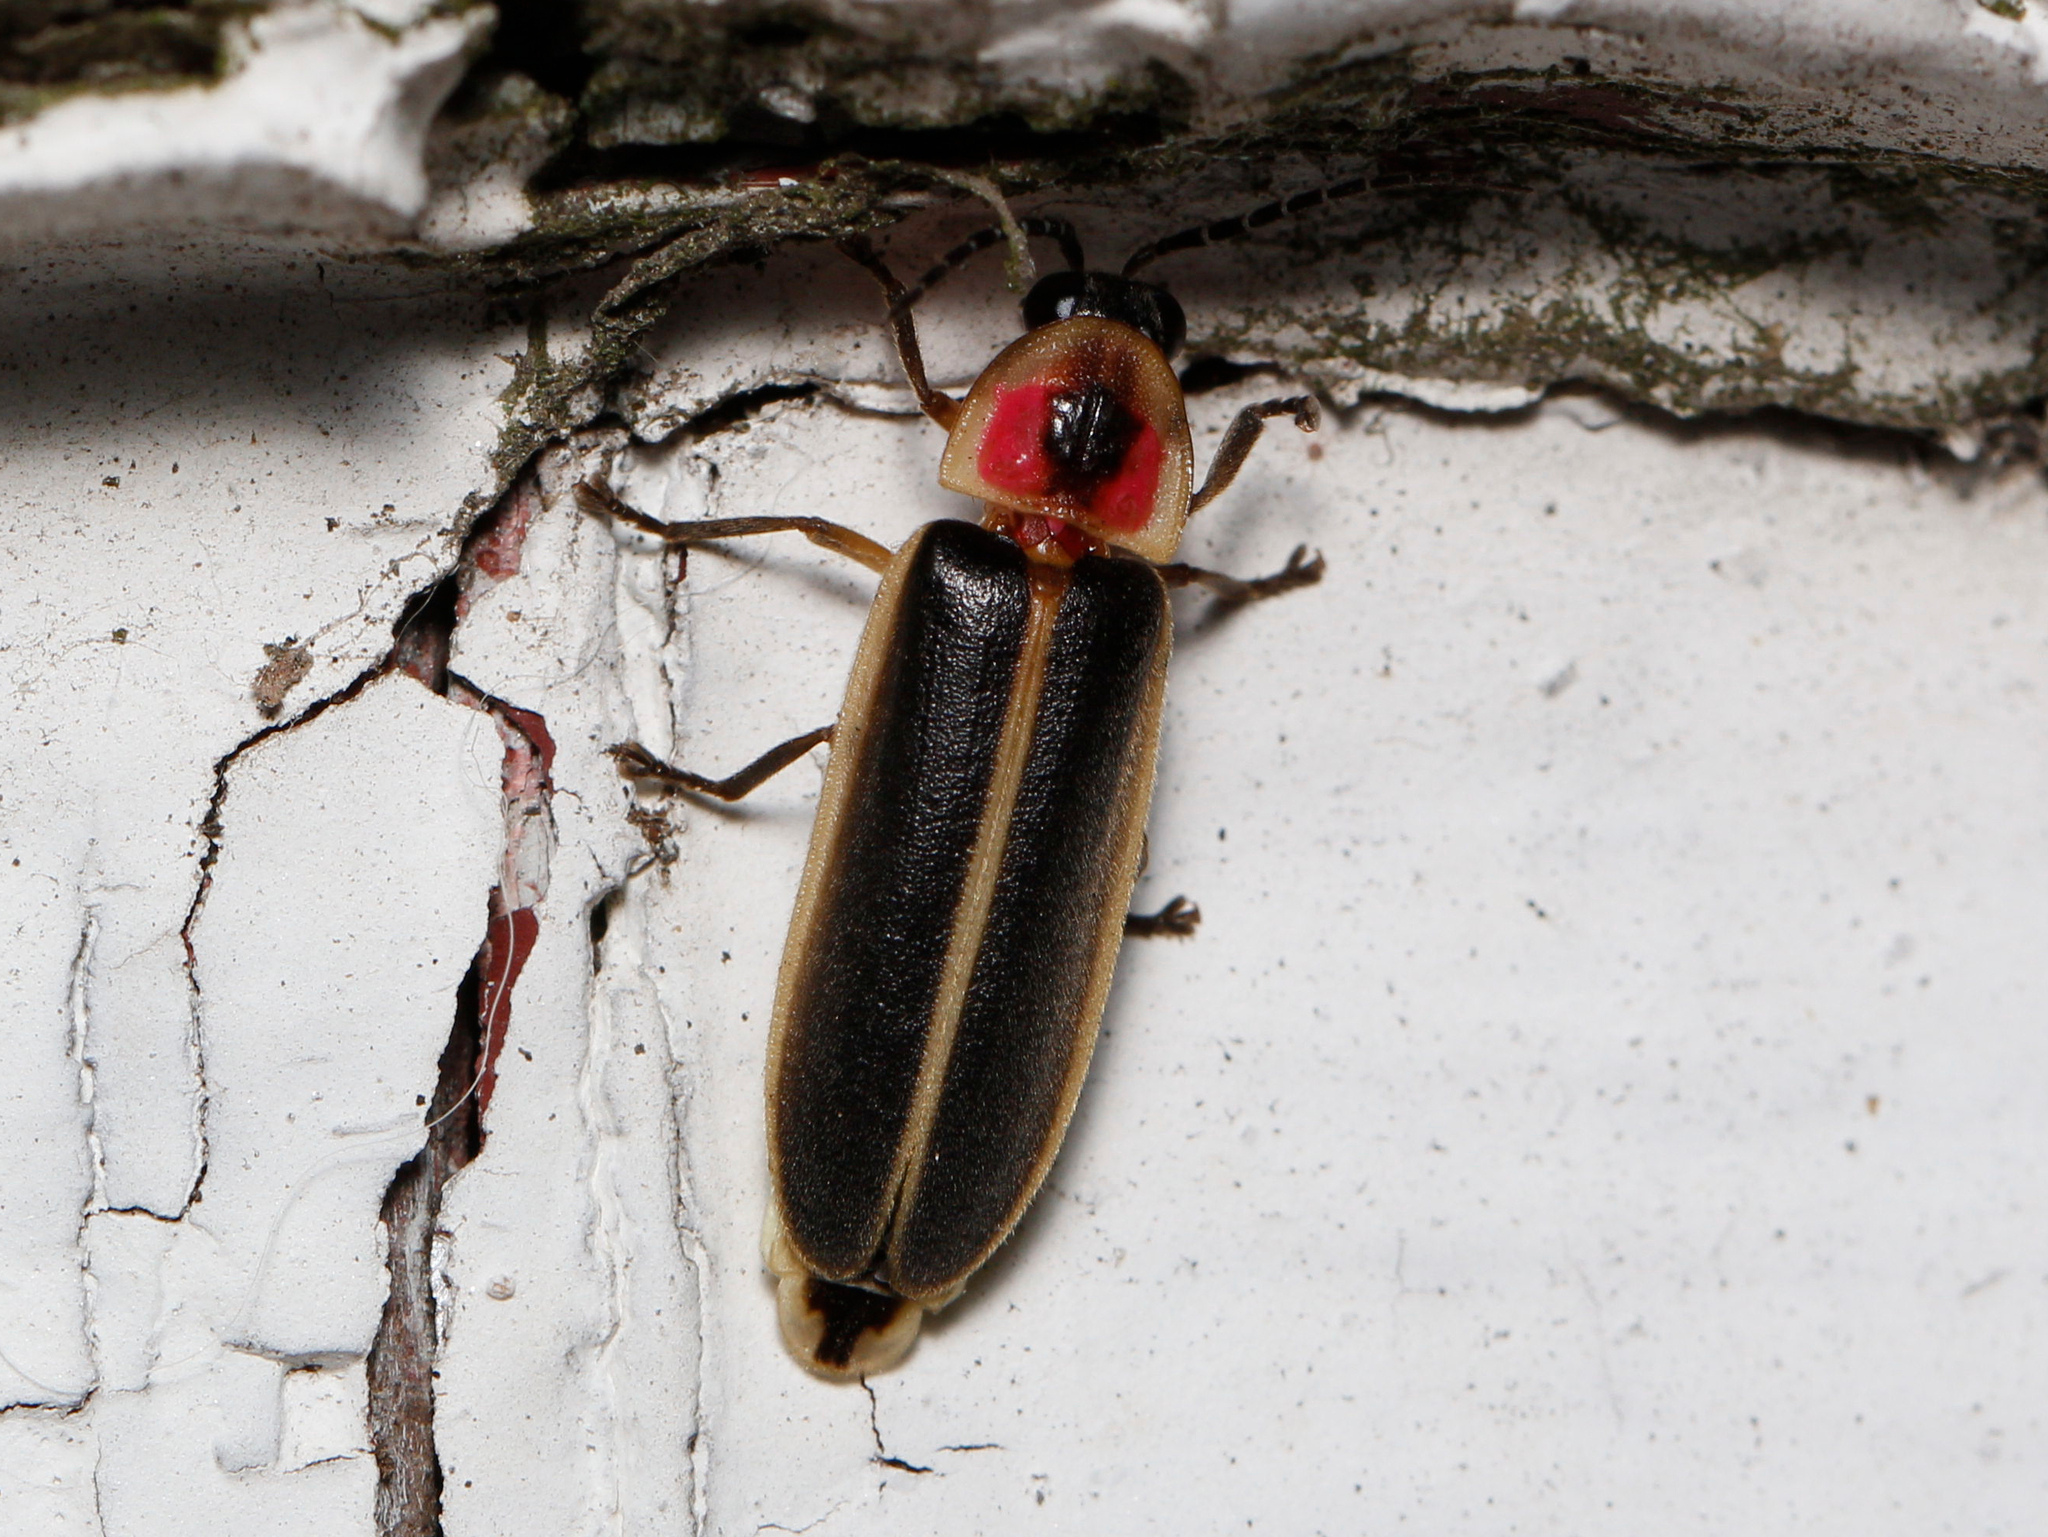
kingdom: Animalia
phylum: Arthropoda
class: Insecta
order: Coleoptera
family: Lampyridae
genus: Photinus
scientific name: Photinus pyralis
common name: Big dipper firefly
